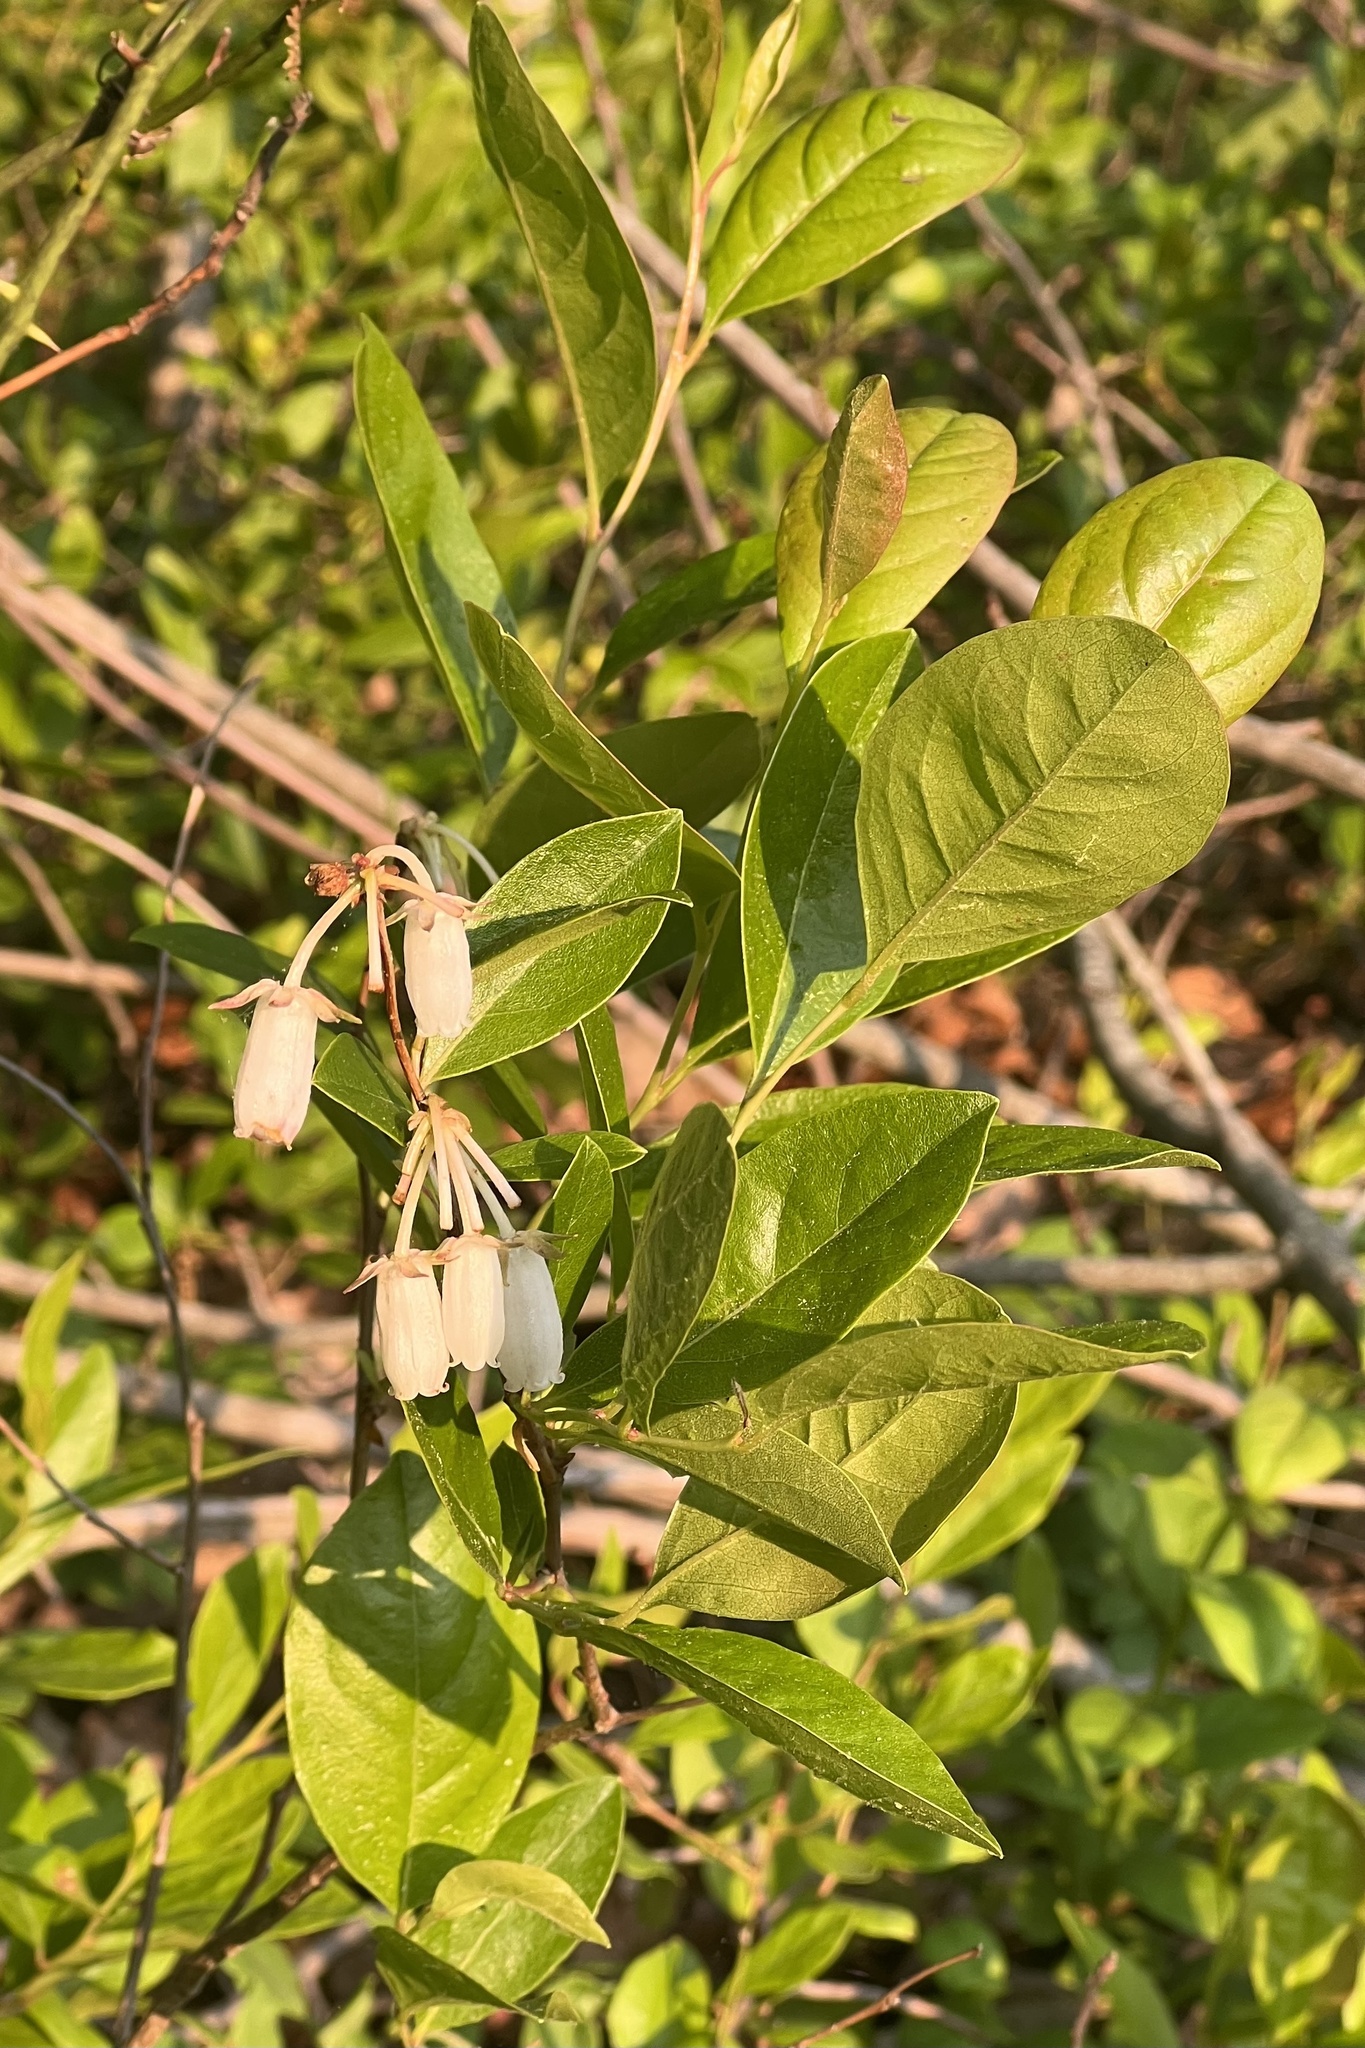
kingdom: Plantae
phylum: Tracheophyta
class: Magnoliopsida
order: Ericales
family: Ericaceae
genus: Lyonia
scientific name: Lyonia mariana
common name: Staggerbush
